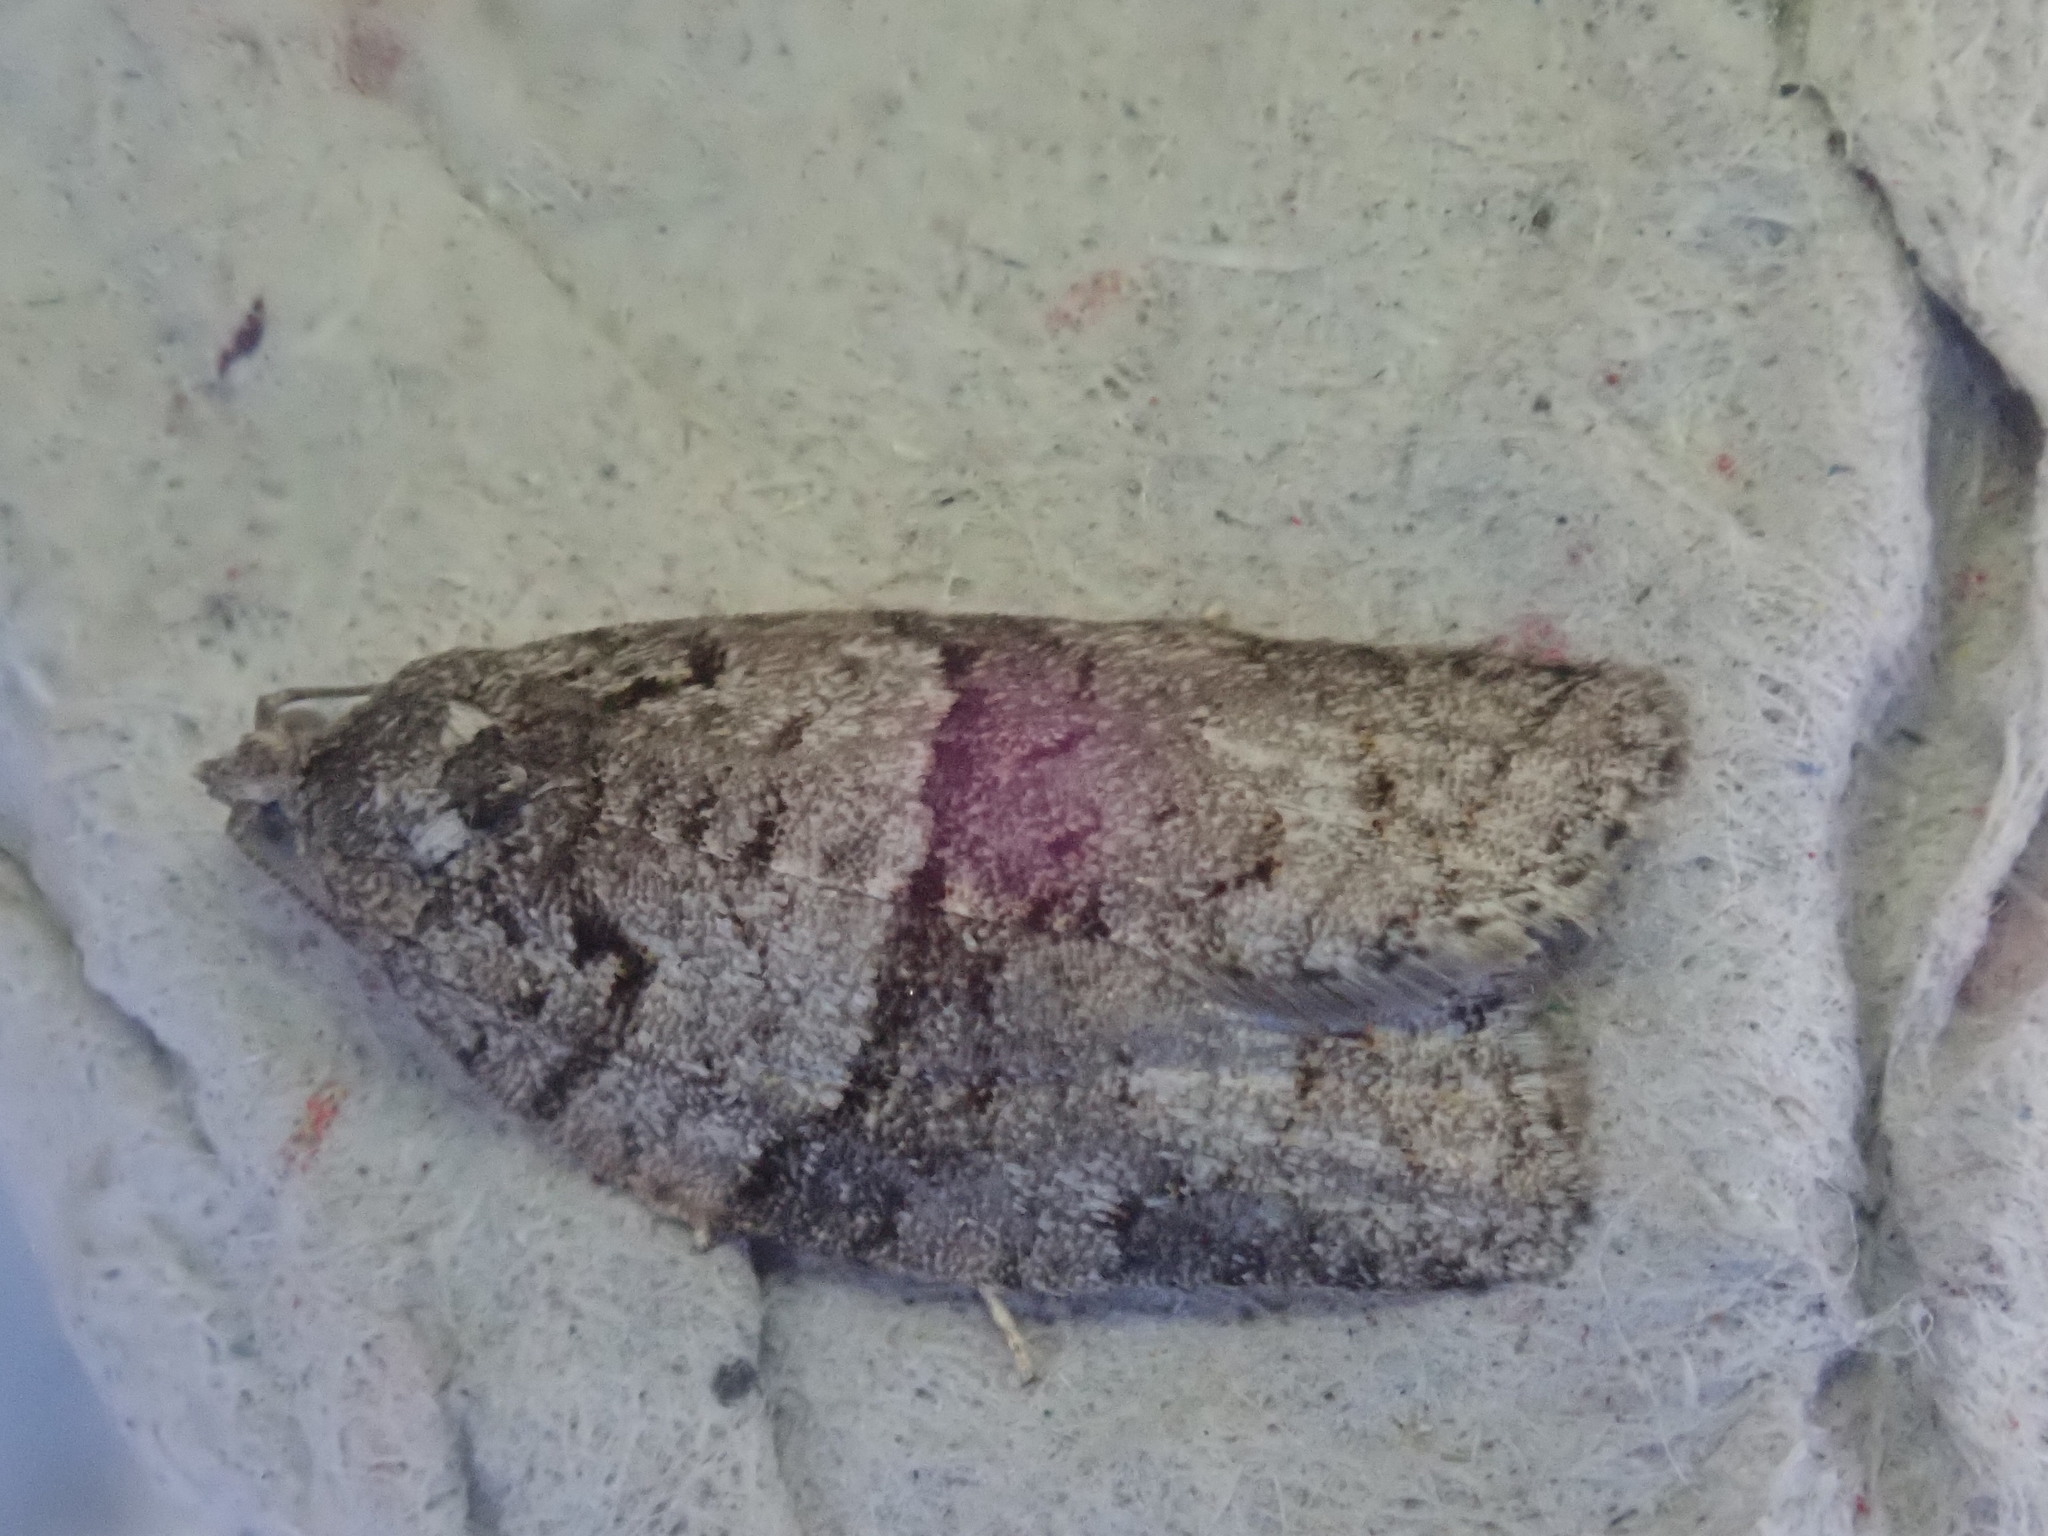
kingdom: Animalia
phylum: Arthropoda
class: Insecta
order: Lepidoptera
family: Tortricidae
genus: Syndemis
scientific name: Syndemis afflictana
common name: Gray leafroller moth
